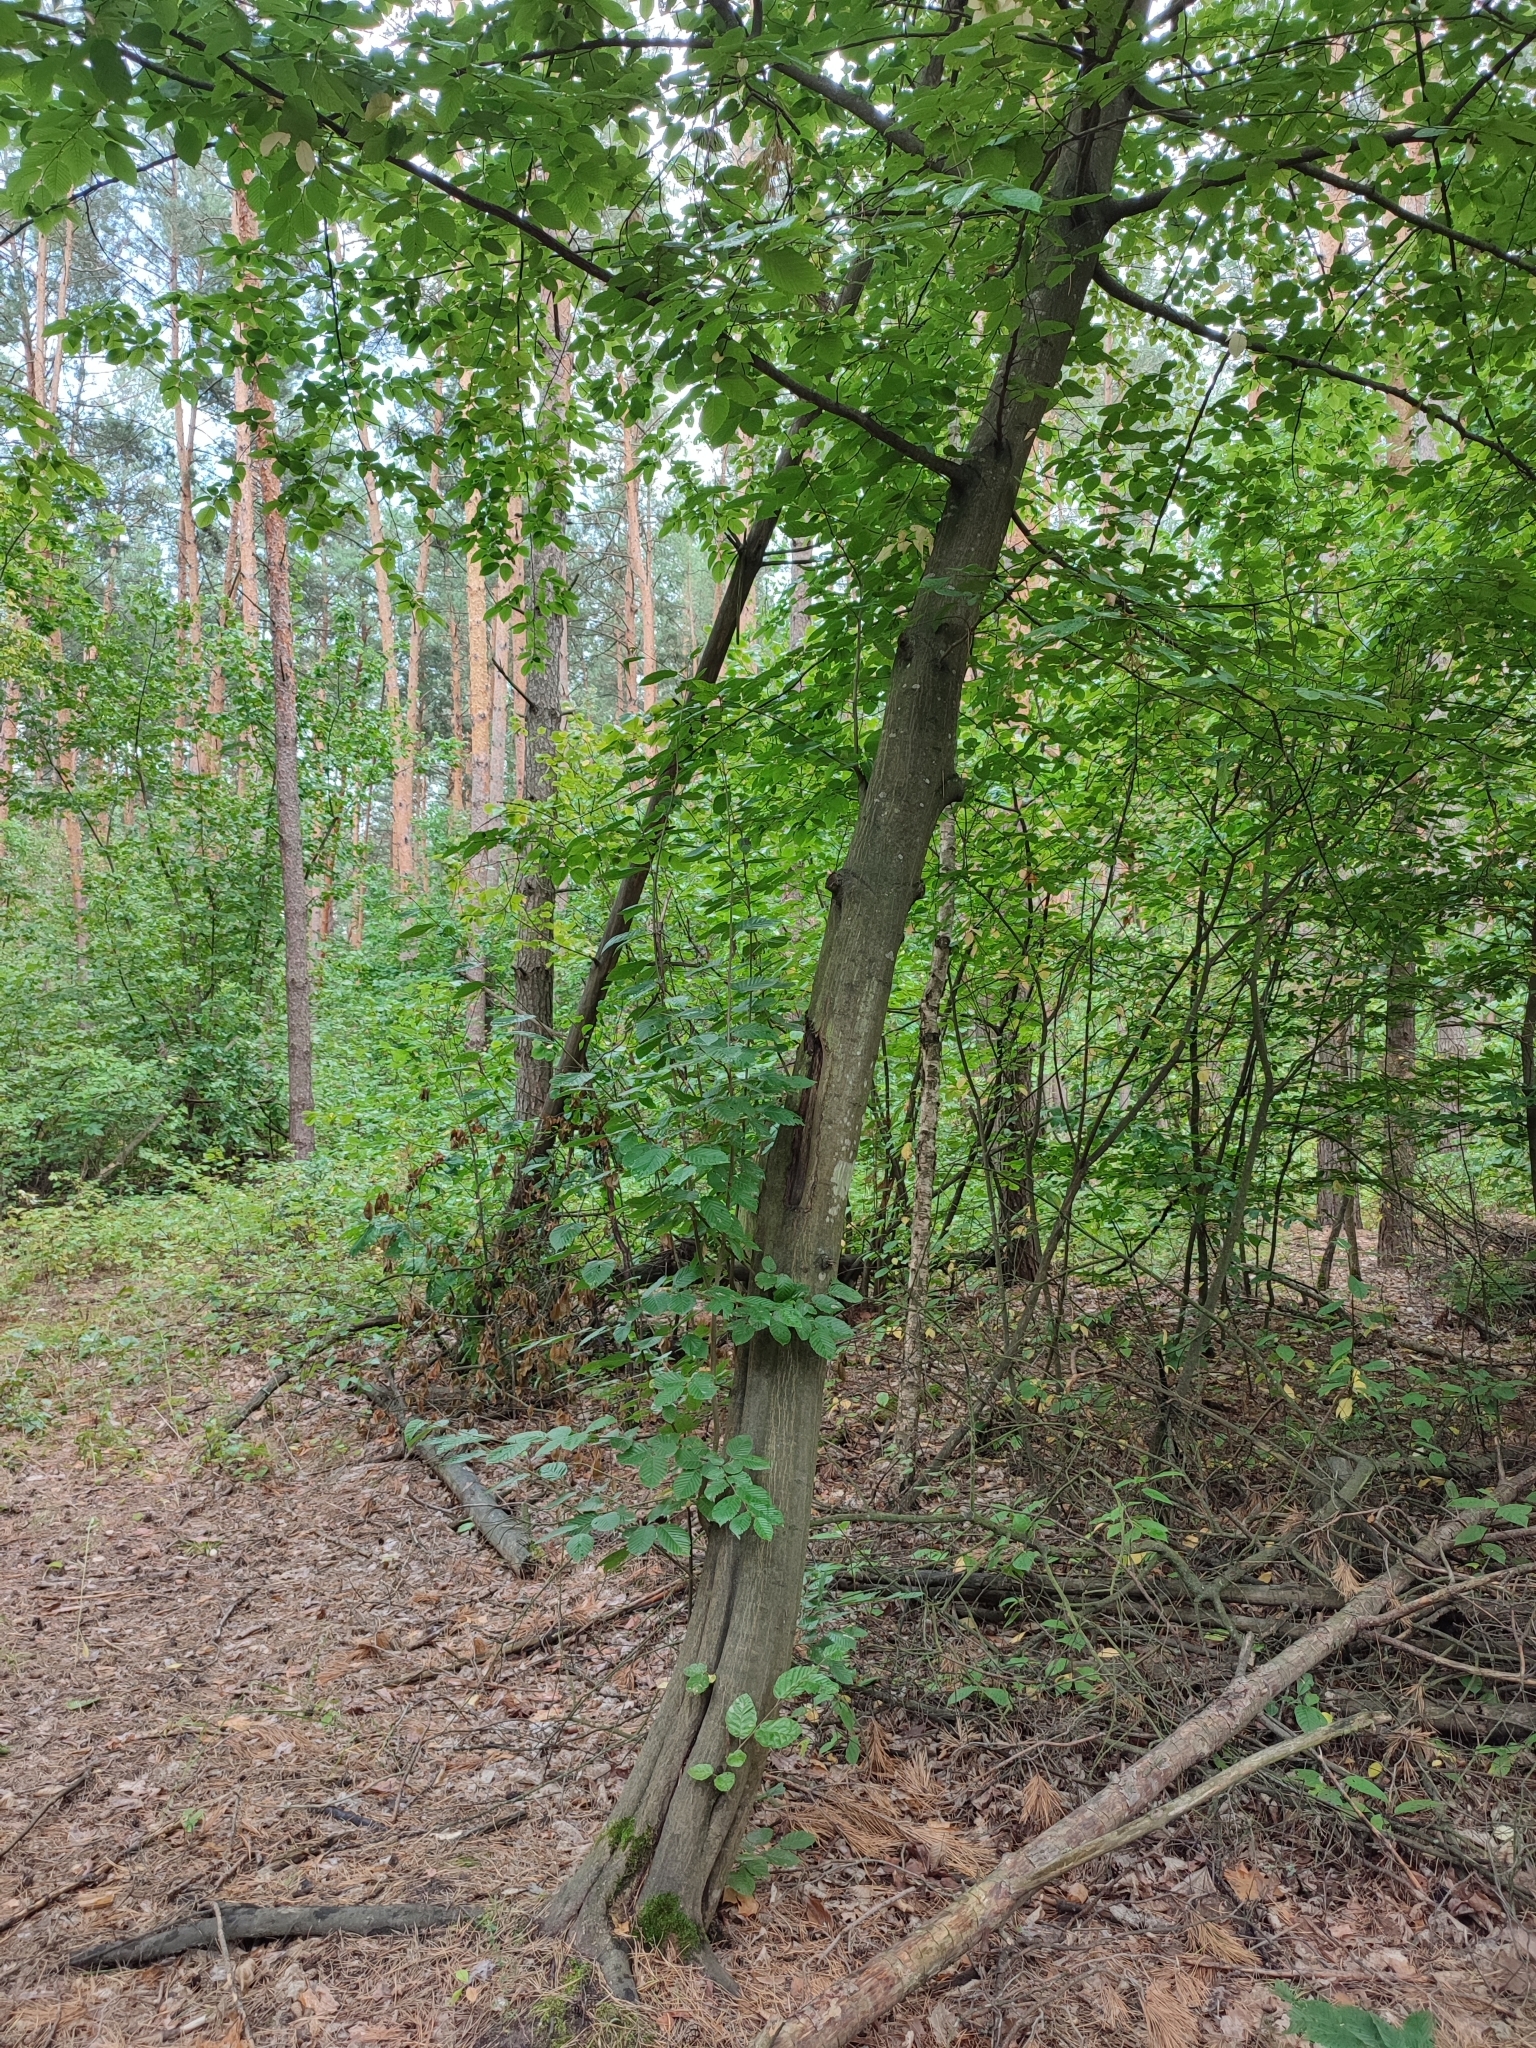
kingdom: Plantae
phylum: Tracheophyta
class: Magnoliopsida
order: Fagales
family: Betulaceae
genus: Carpinus
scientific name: Carpinus betulus
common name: Hornbeam
